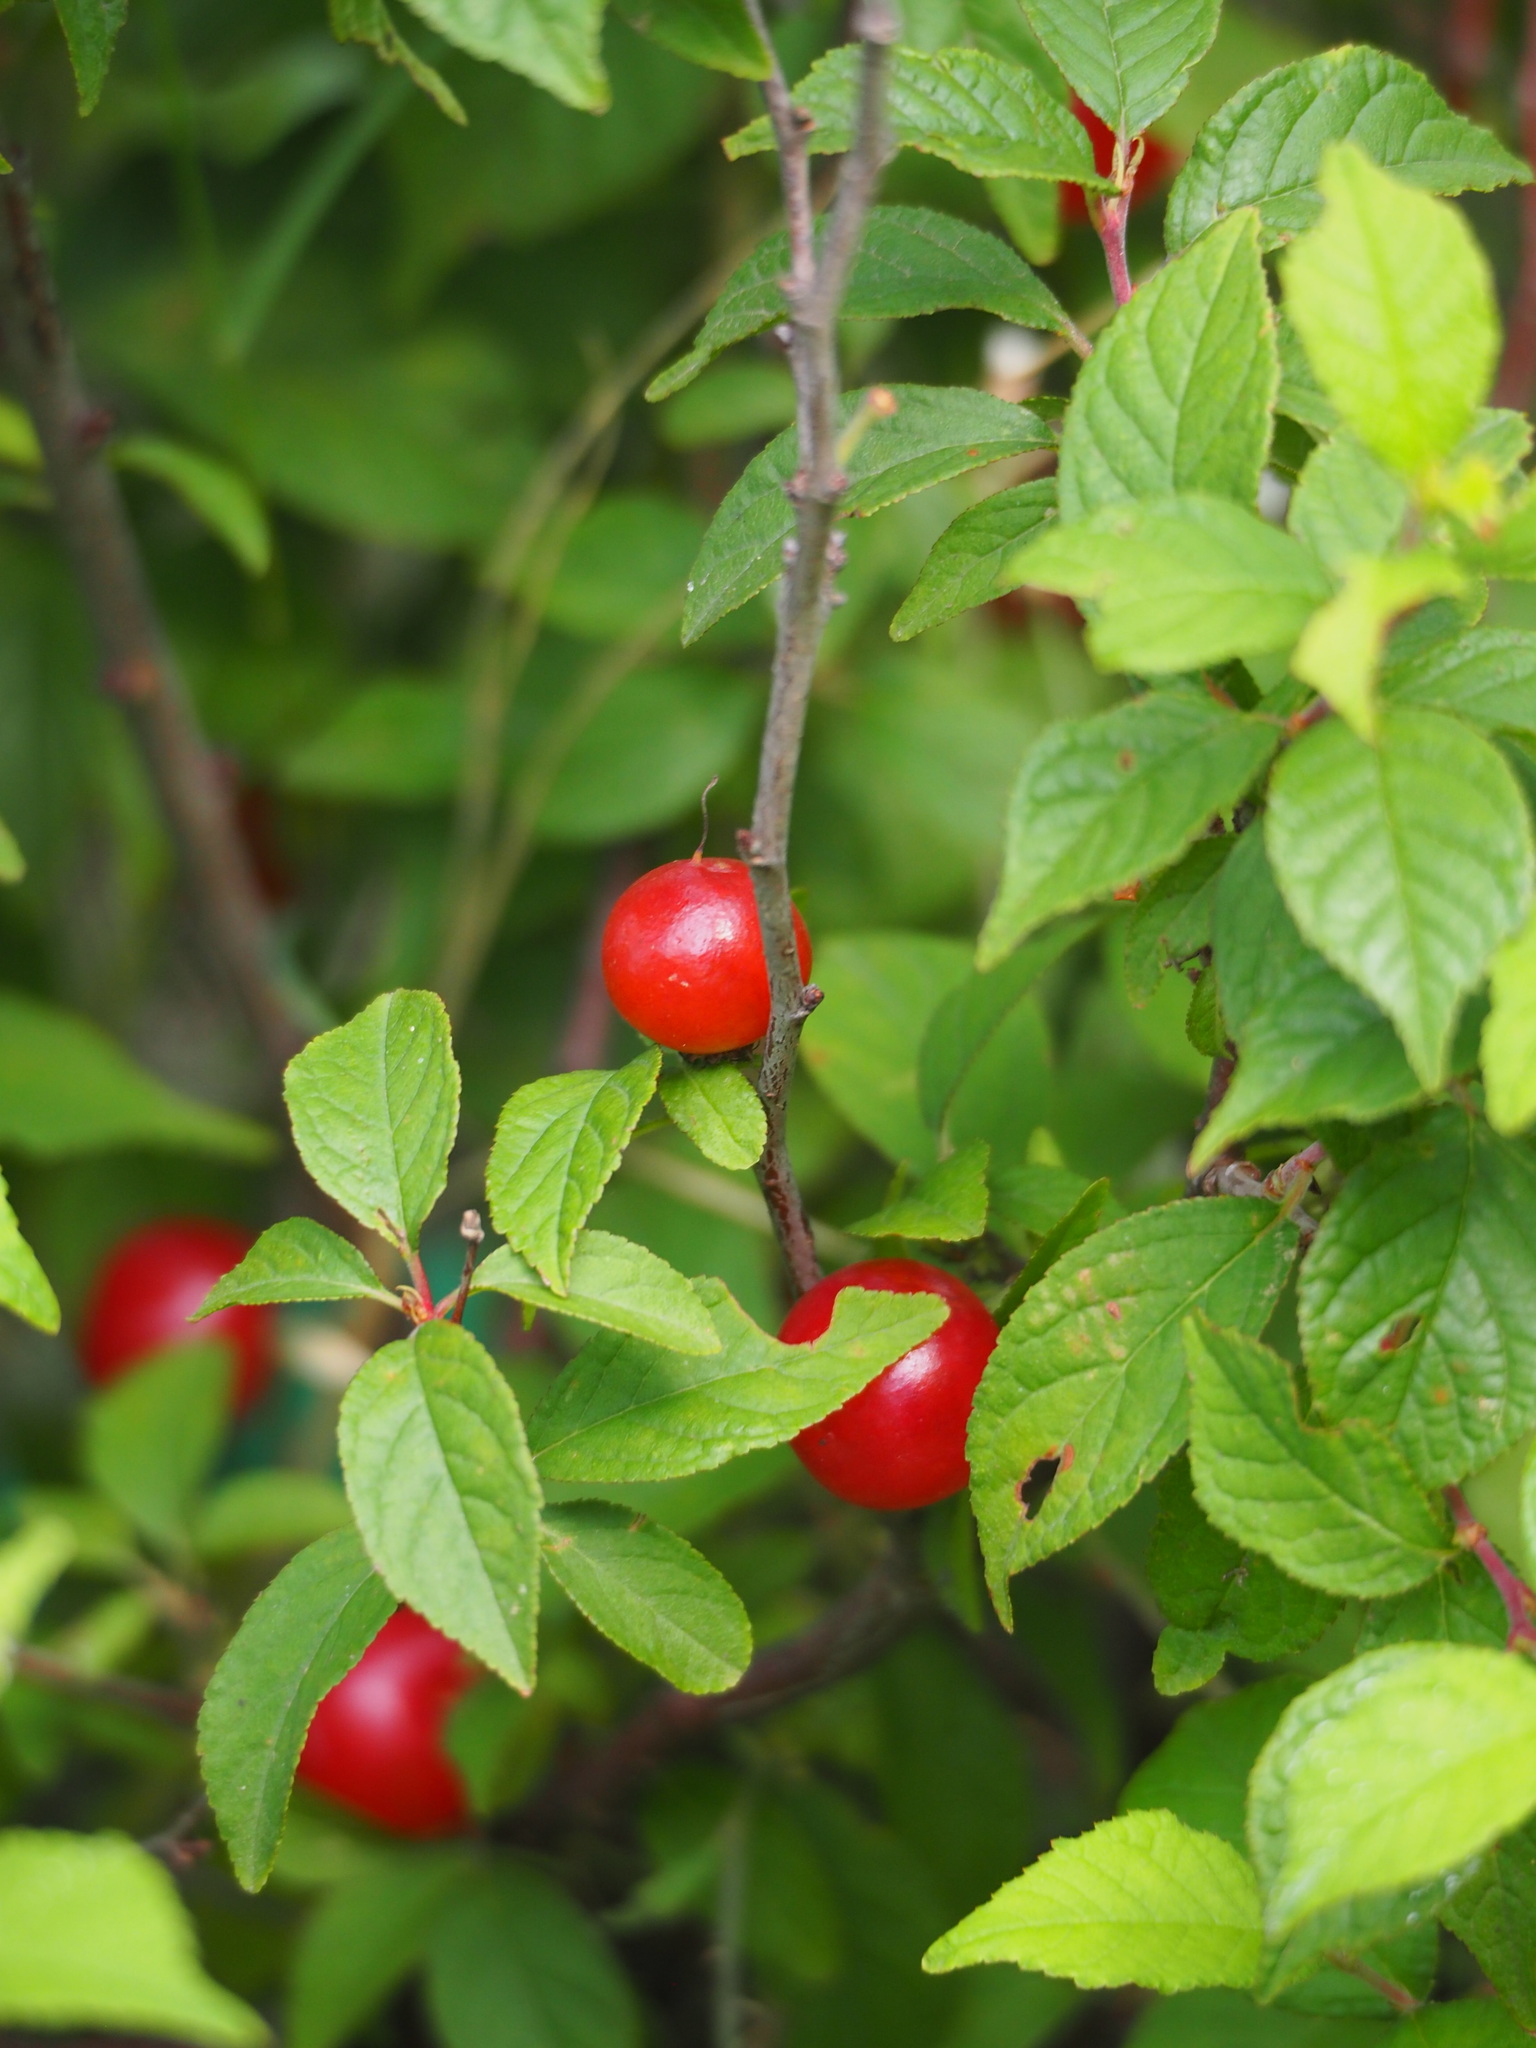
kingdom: Plantae
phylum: Tracheophyta
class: Magnoliopsida
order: Rosales
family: Rosaceae
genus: Prunus
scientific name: Prunus pogonostyla
